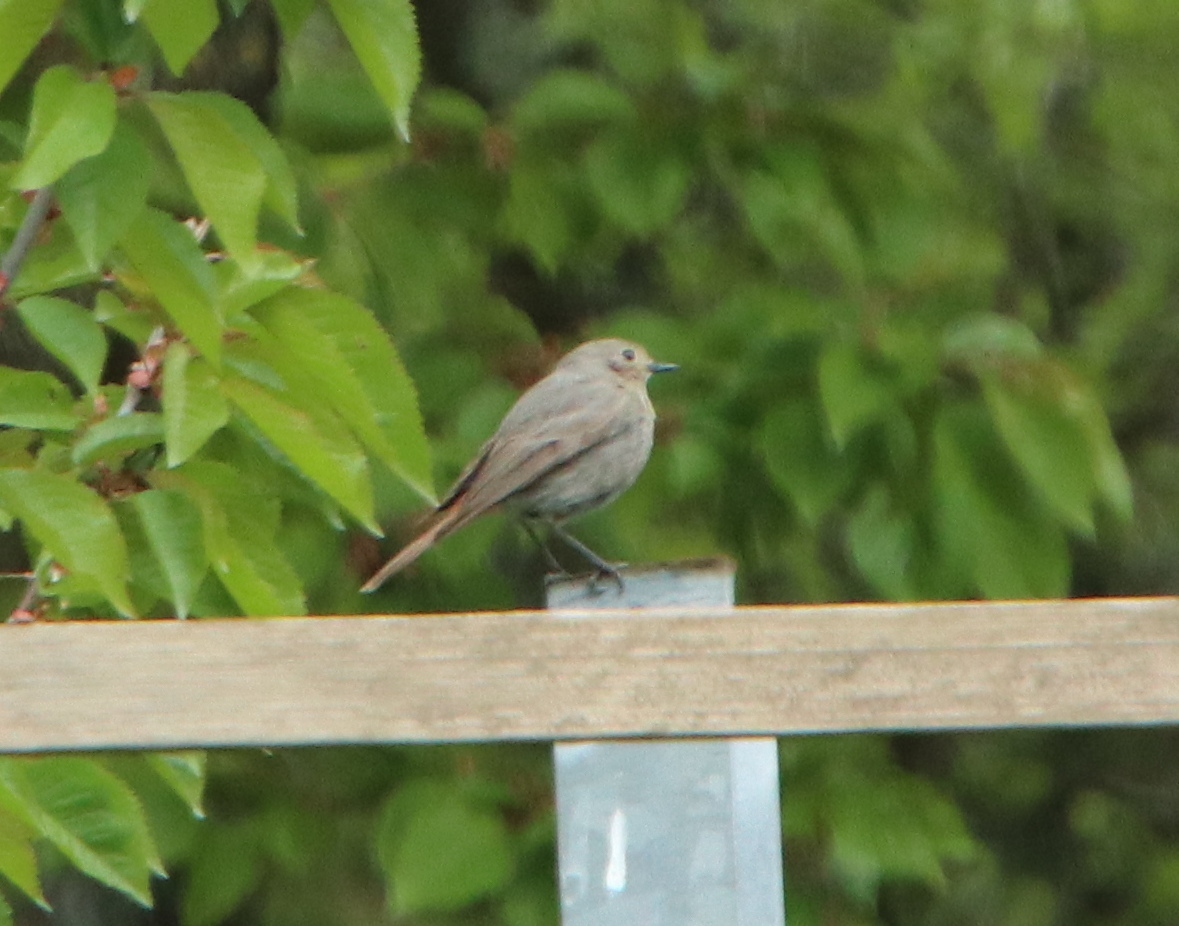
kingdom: Animalia
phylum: Chordata
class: Aves
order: Passeriformes
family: Muscicapidae
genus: Phoenicurus
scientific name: Phoenicurus ochruros
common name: Black redstart
